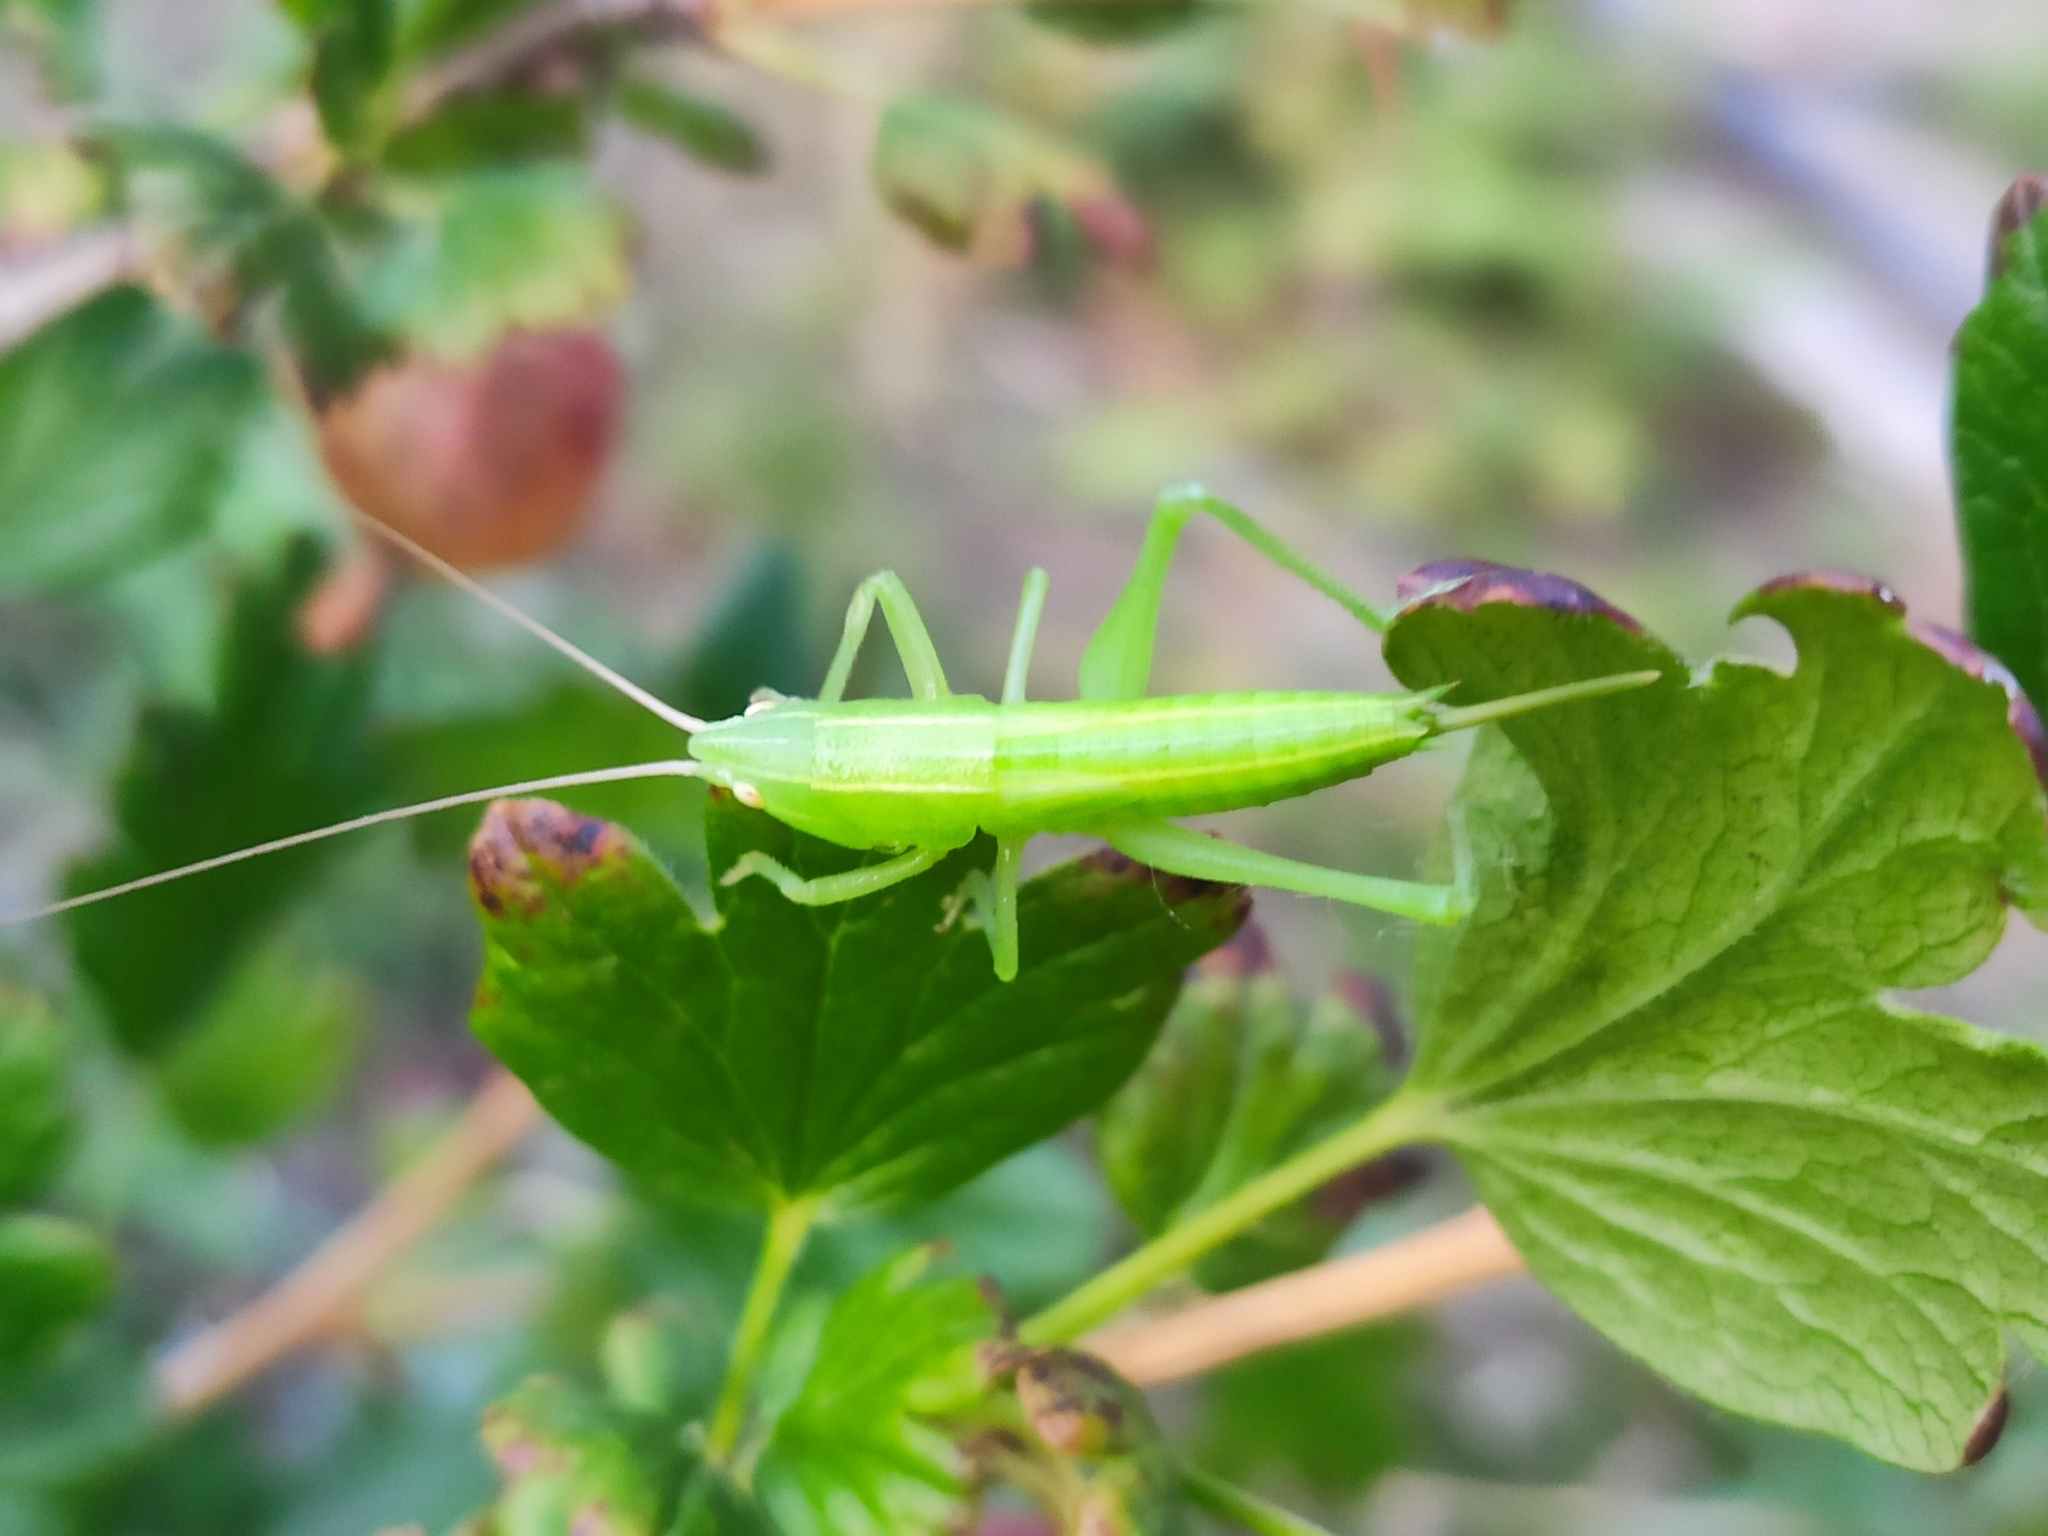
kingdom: Animalia
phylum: Arthropoda
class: Insecta
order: Orthoptera
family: Tettigoniidae
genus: Ruspolia
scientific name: Ruspolia nitidula
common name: Large conehead
